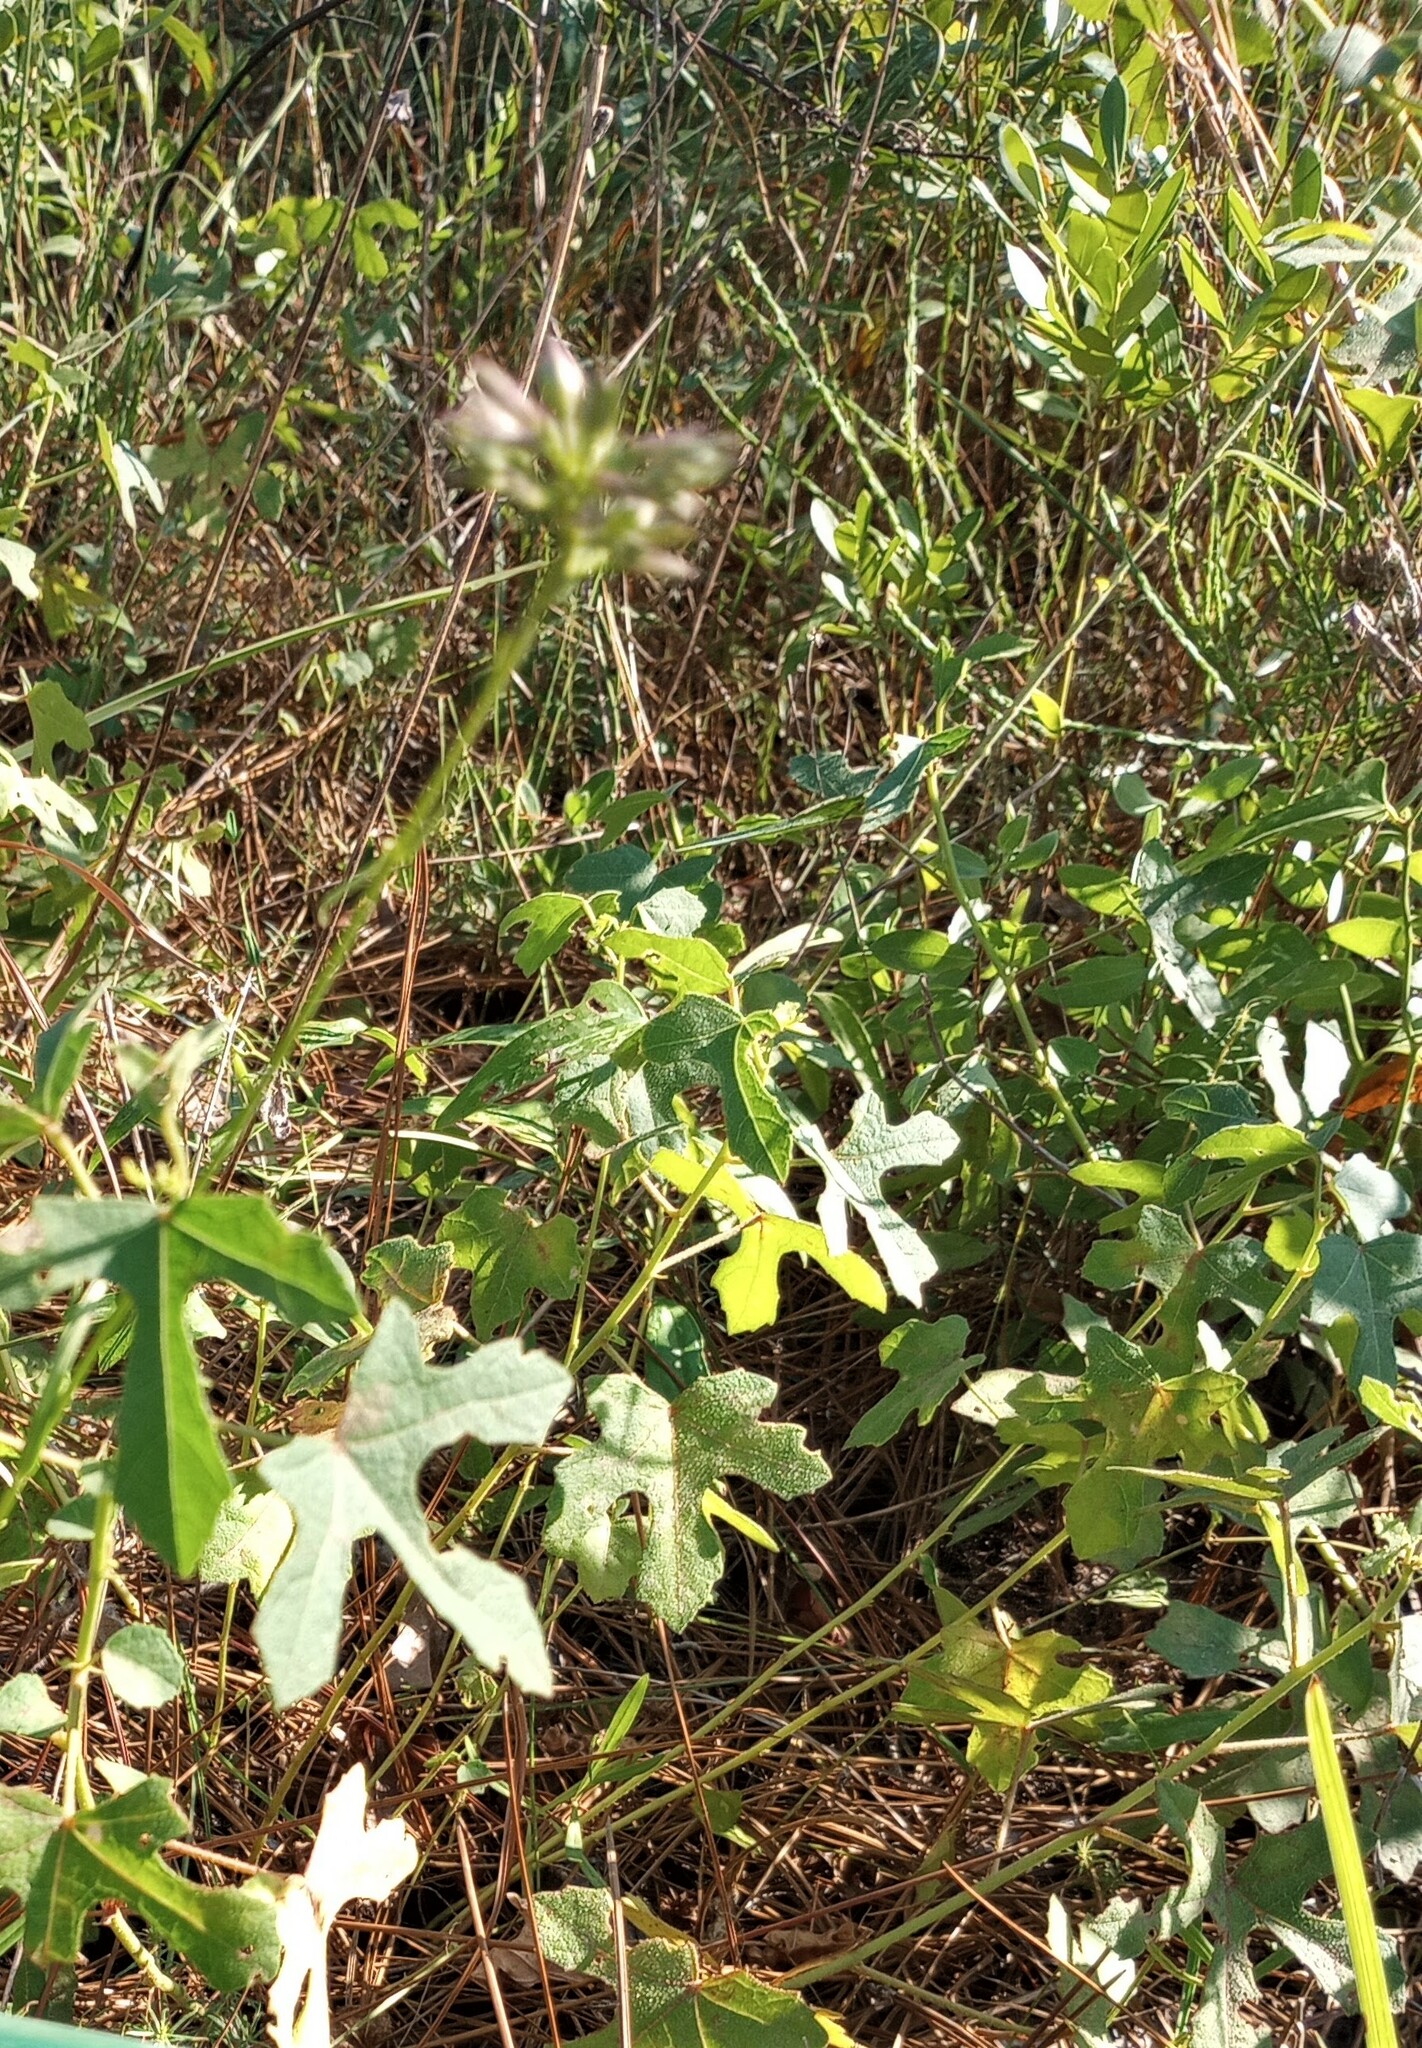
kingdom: Plantae
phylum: Tracheophyta
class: Magnoliopsida
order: Malvales
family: Malvaceae
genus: Hibiscus
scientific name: Hibiscus aculeatus
